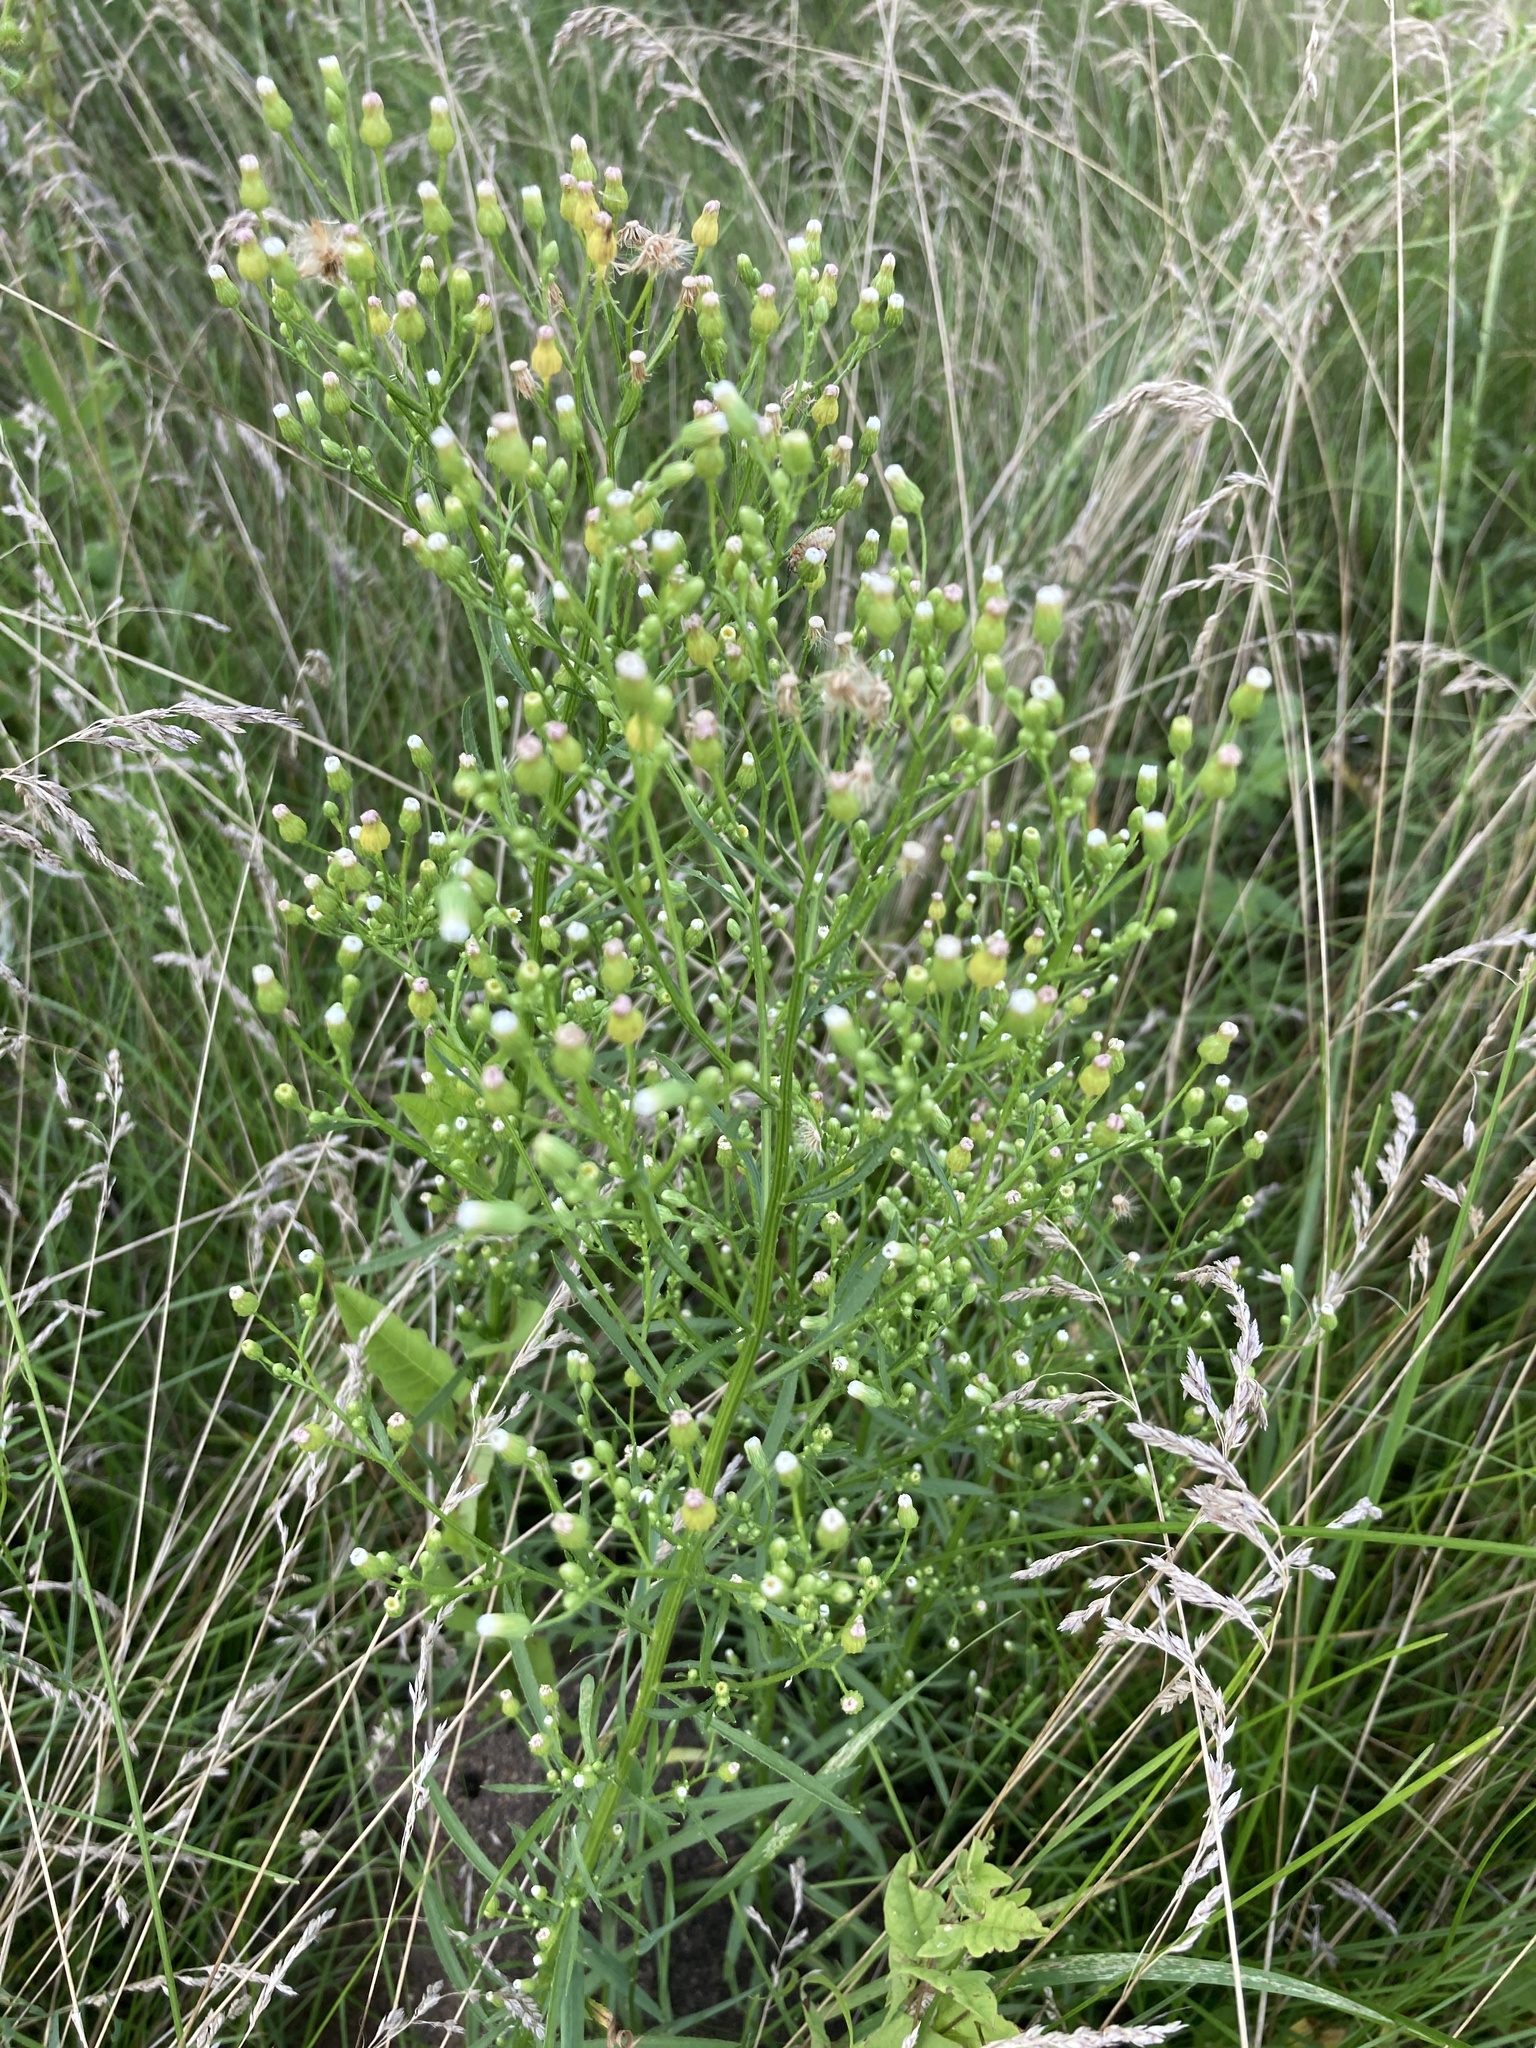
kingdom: Plantae
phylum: Tracheophyta
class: Magnoliopsida
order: Asterales
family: Asteraceae
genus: Erigeron
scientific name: Erigeron canadensis
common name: Canadian fleabane
